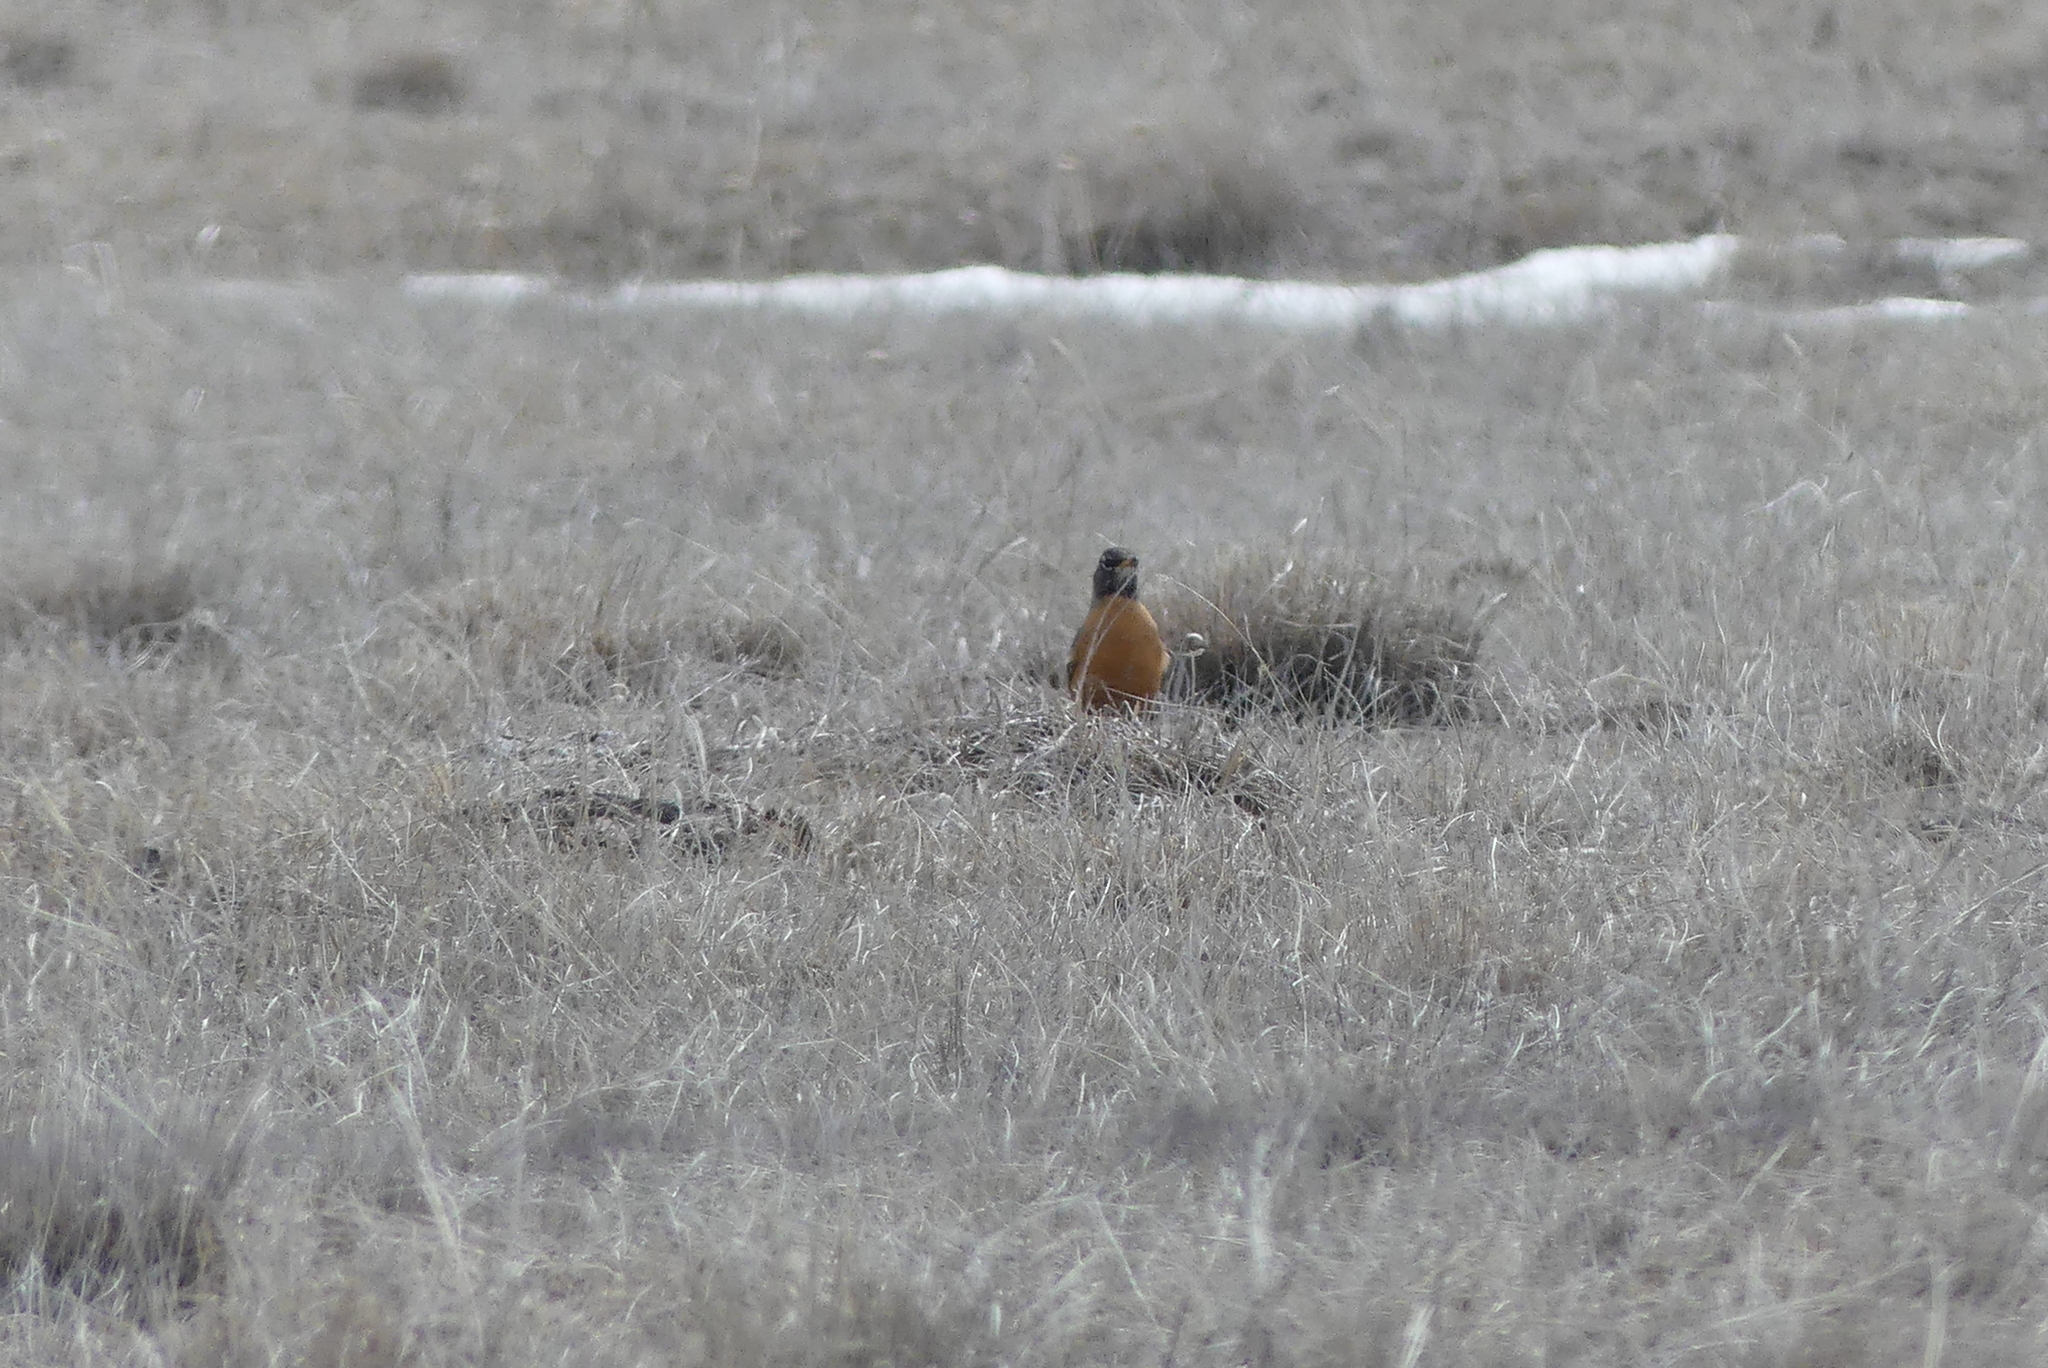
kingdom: Animalia
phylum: Chordata
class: Aves
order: Passeriformes
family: Turdidae
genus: Turdus
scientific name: Turdus migratorius
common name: American robin
